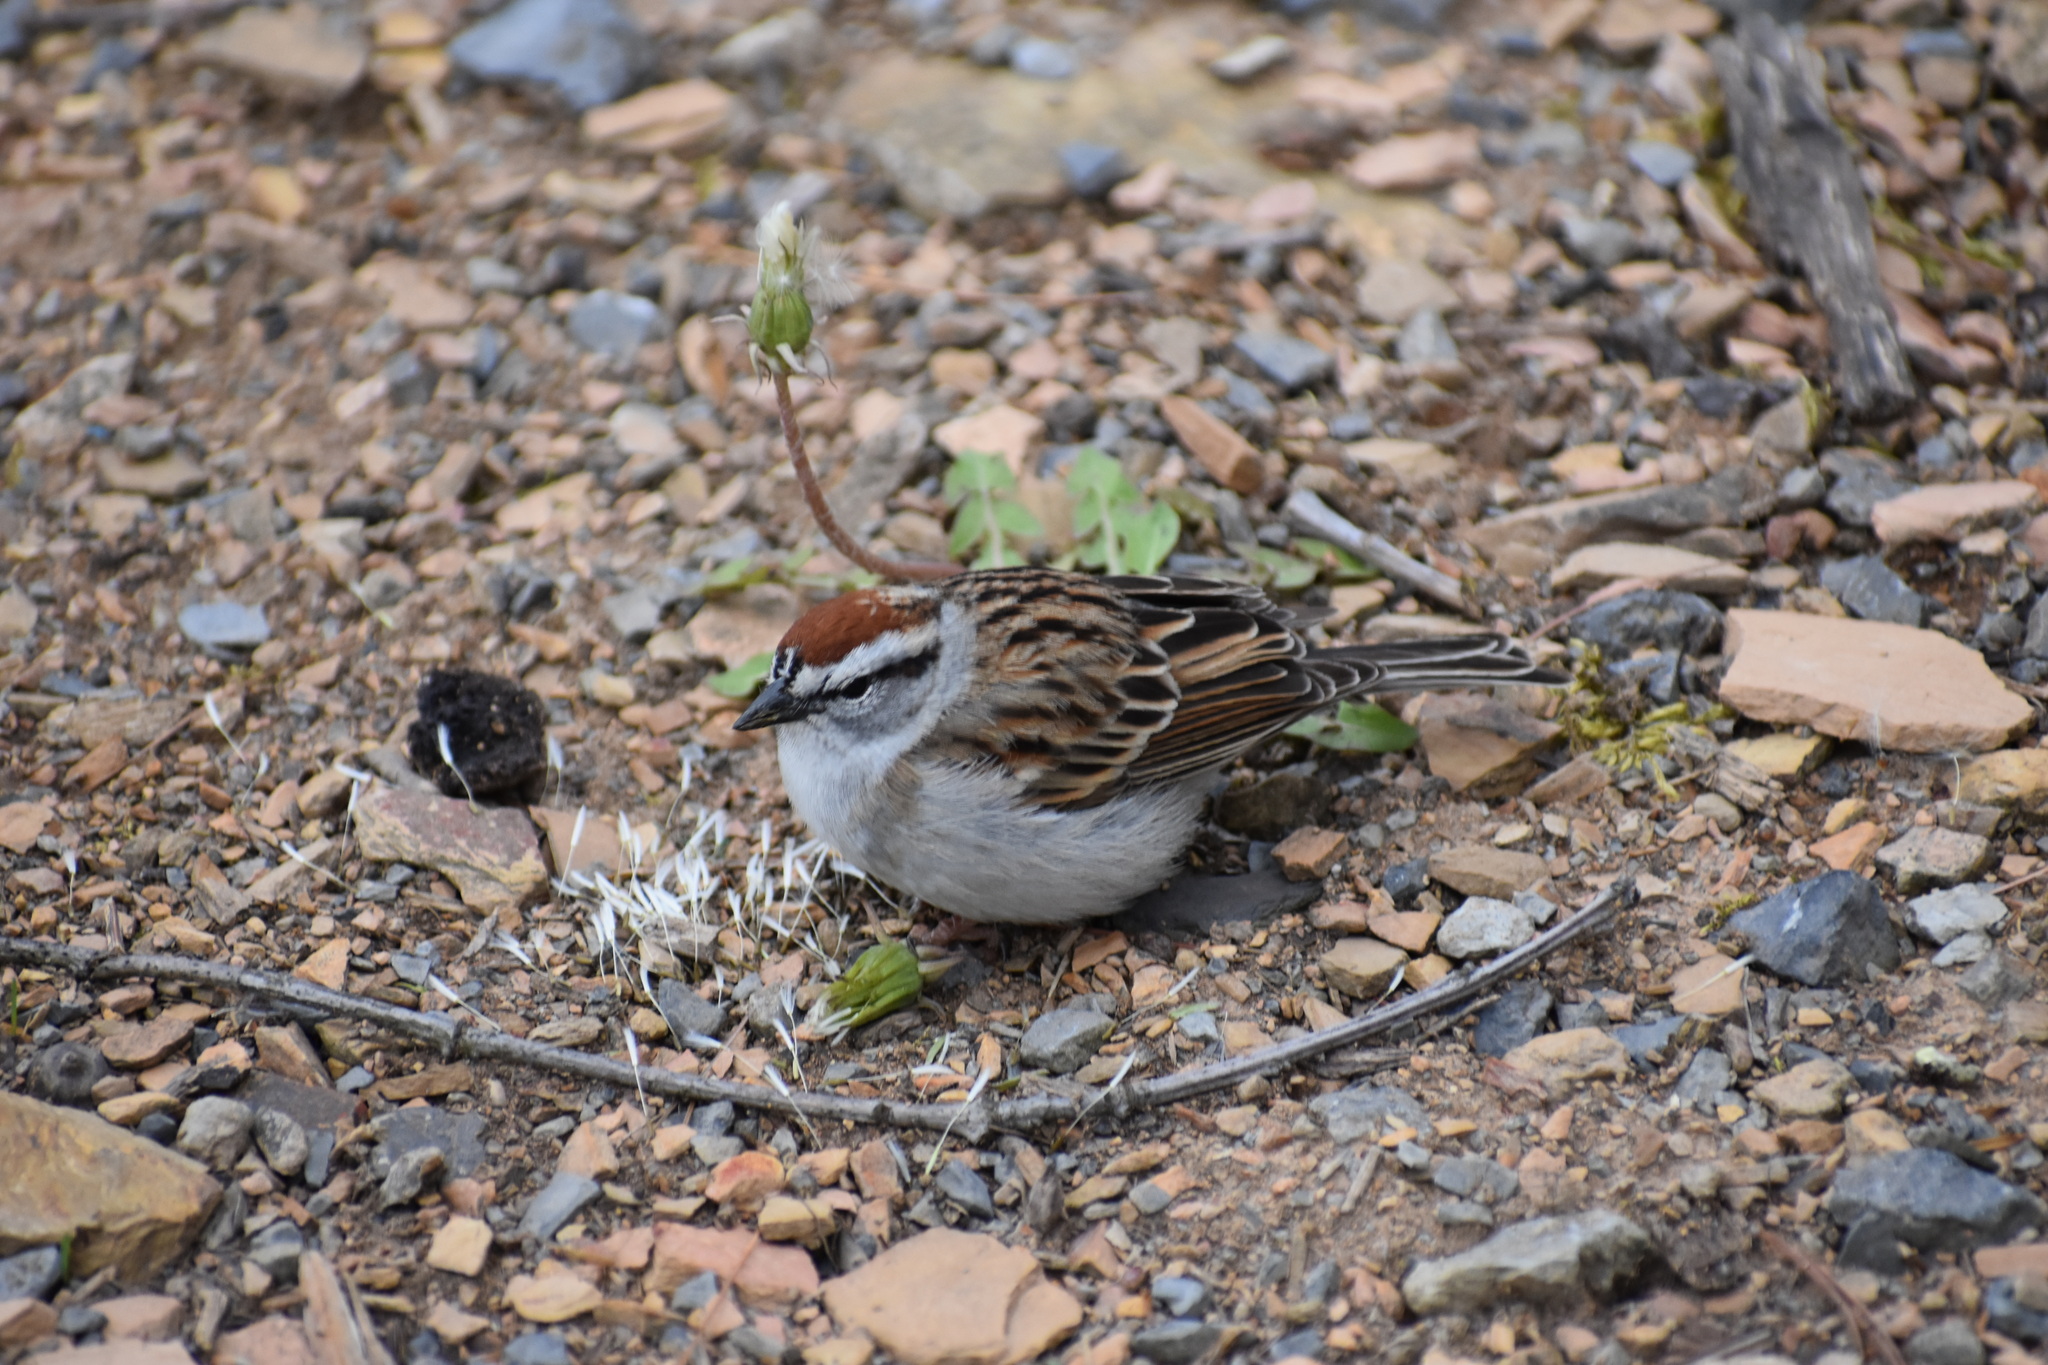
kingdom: Animalia
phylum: Chordata
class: Aves
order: Passeriformes
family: Passerellidae
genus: Spizella
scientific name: Spizella passerina
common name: Chipping sparrow
